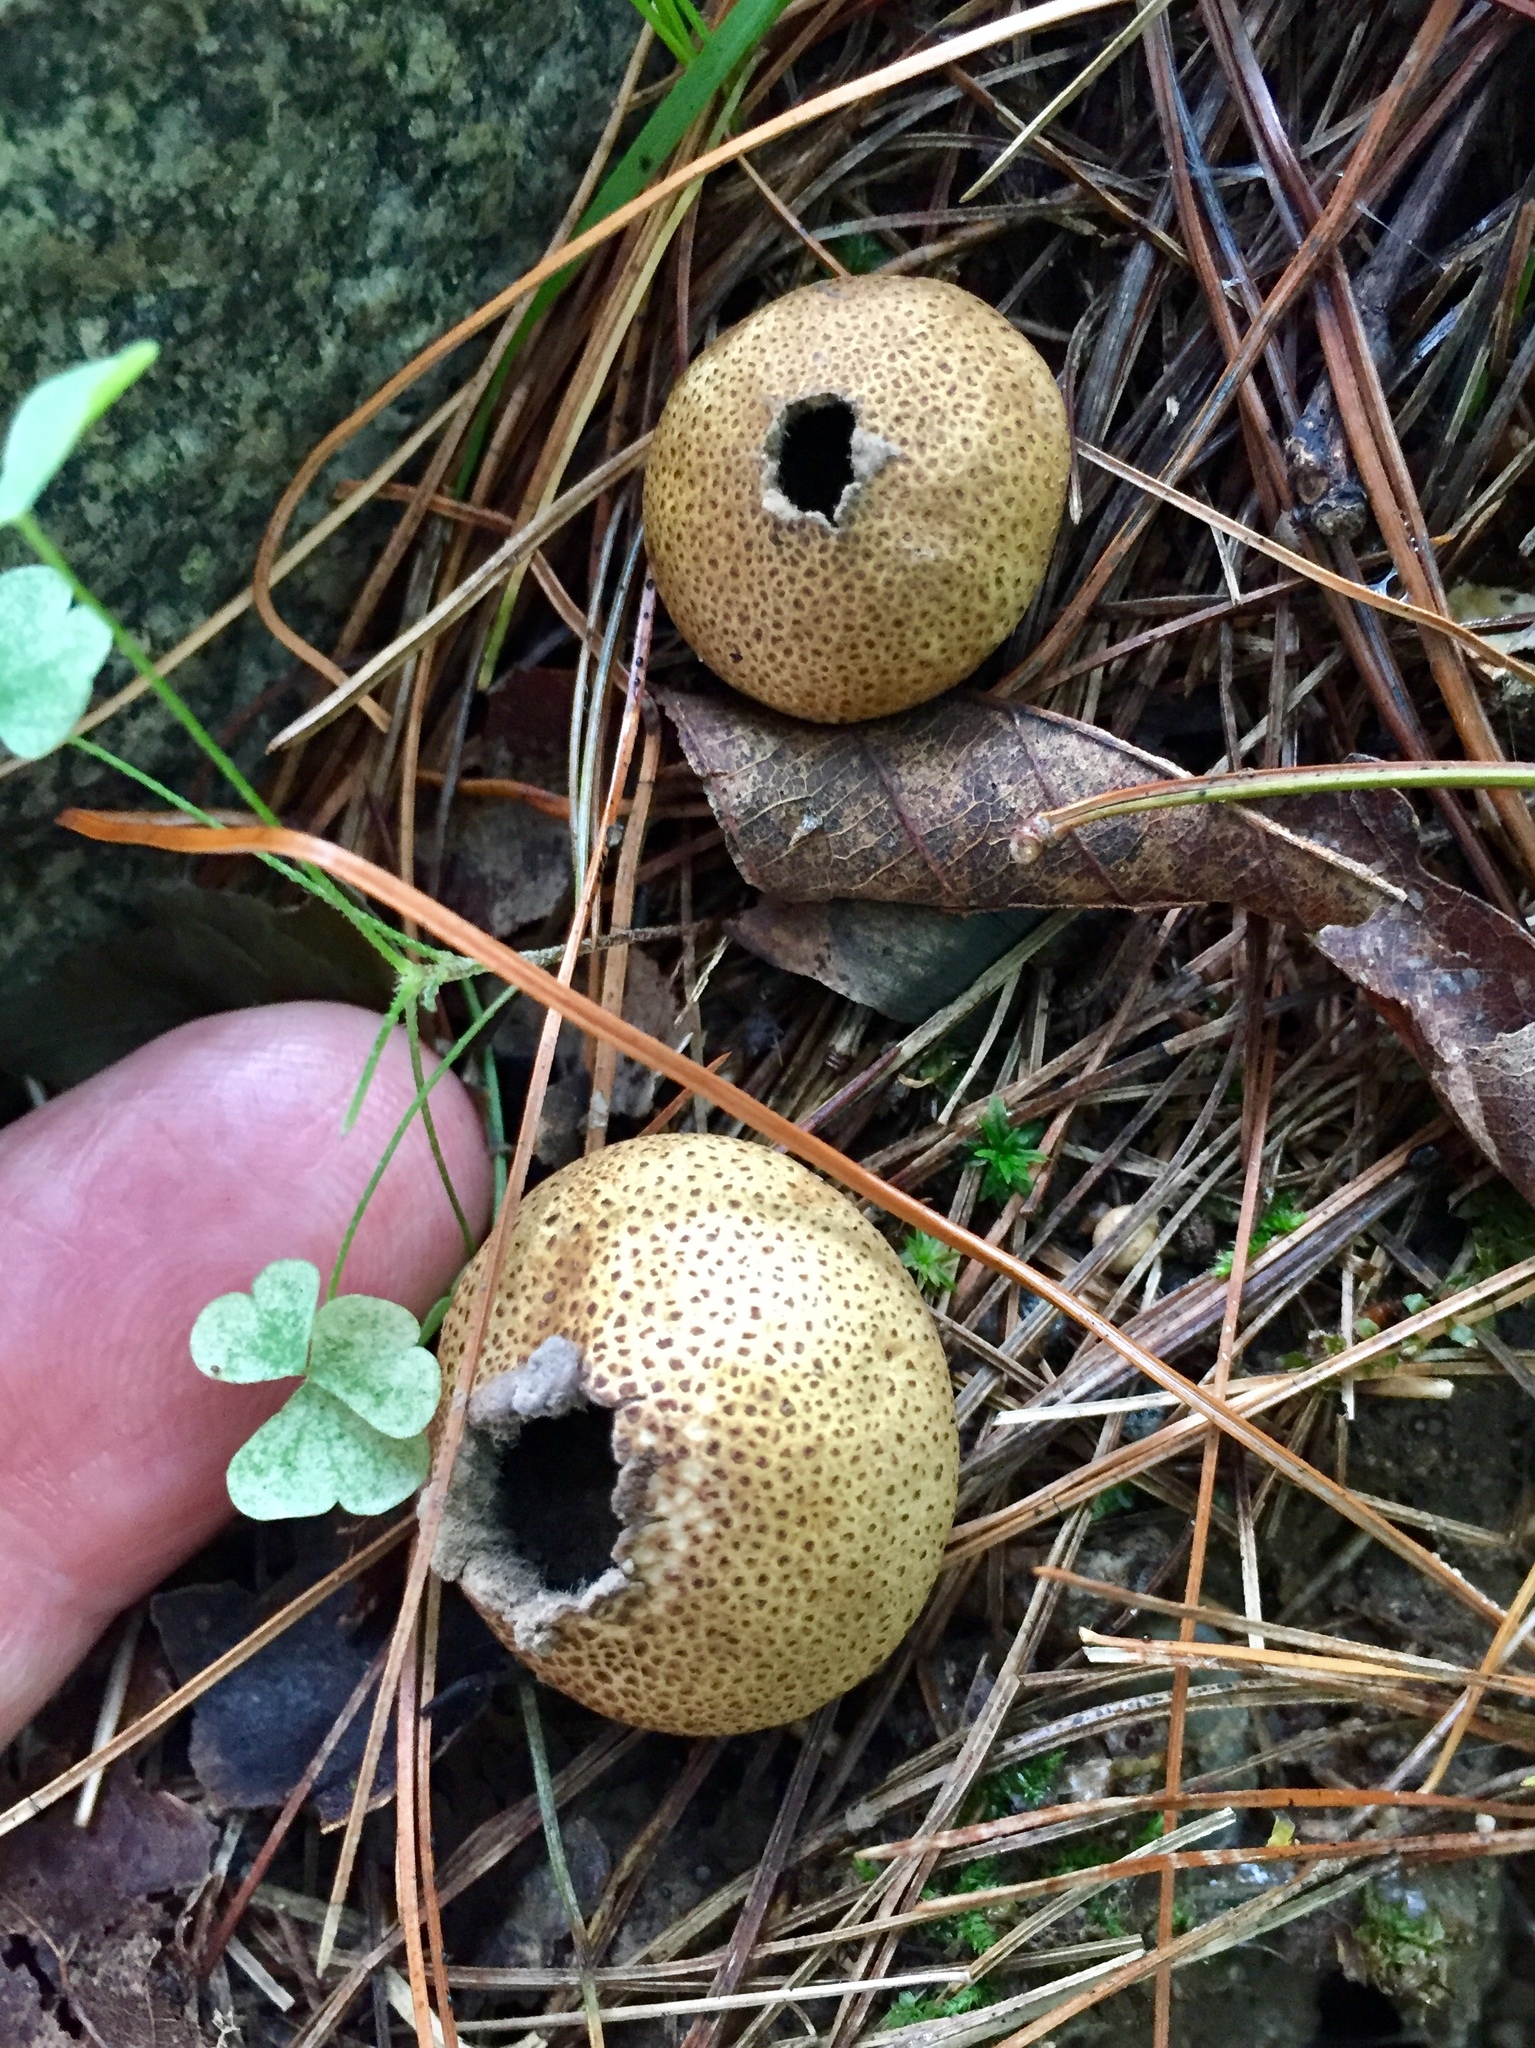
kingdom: Fungi
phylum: Basidiomycota
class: Agaricomycetes
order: Boletales
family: Sclerodermataceae
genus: Scleroderma
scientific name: Scleroderma citrinum
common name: Common earthball
